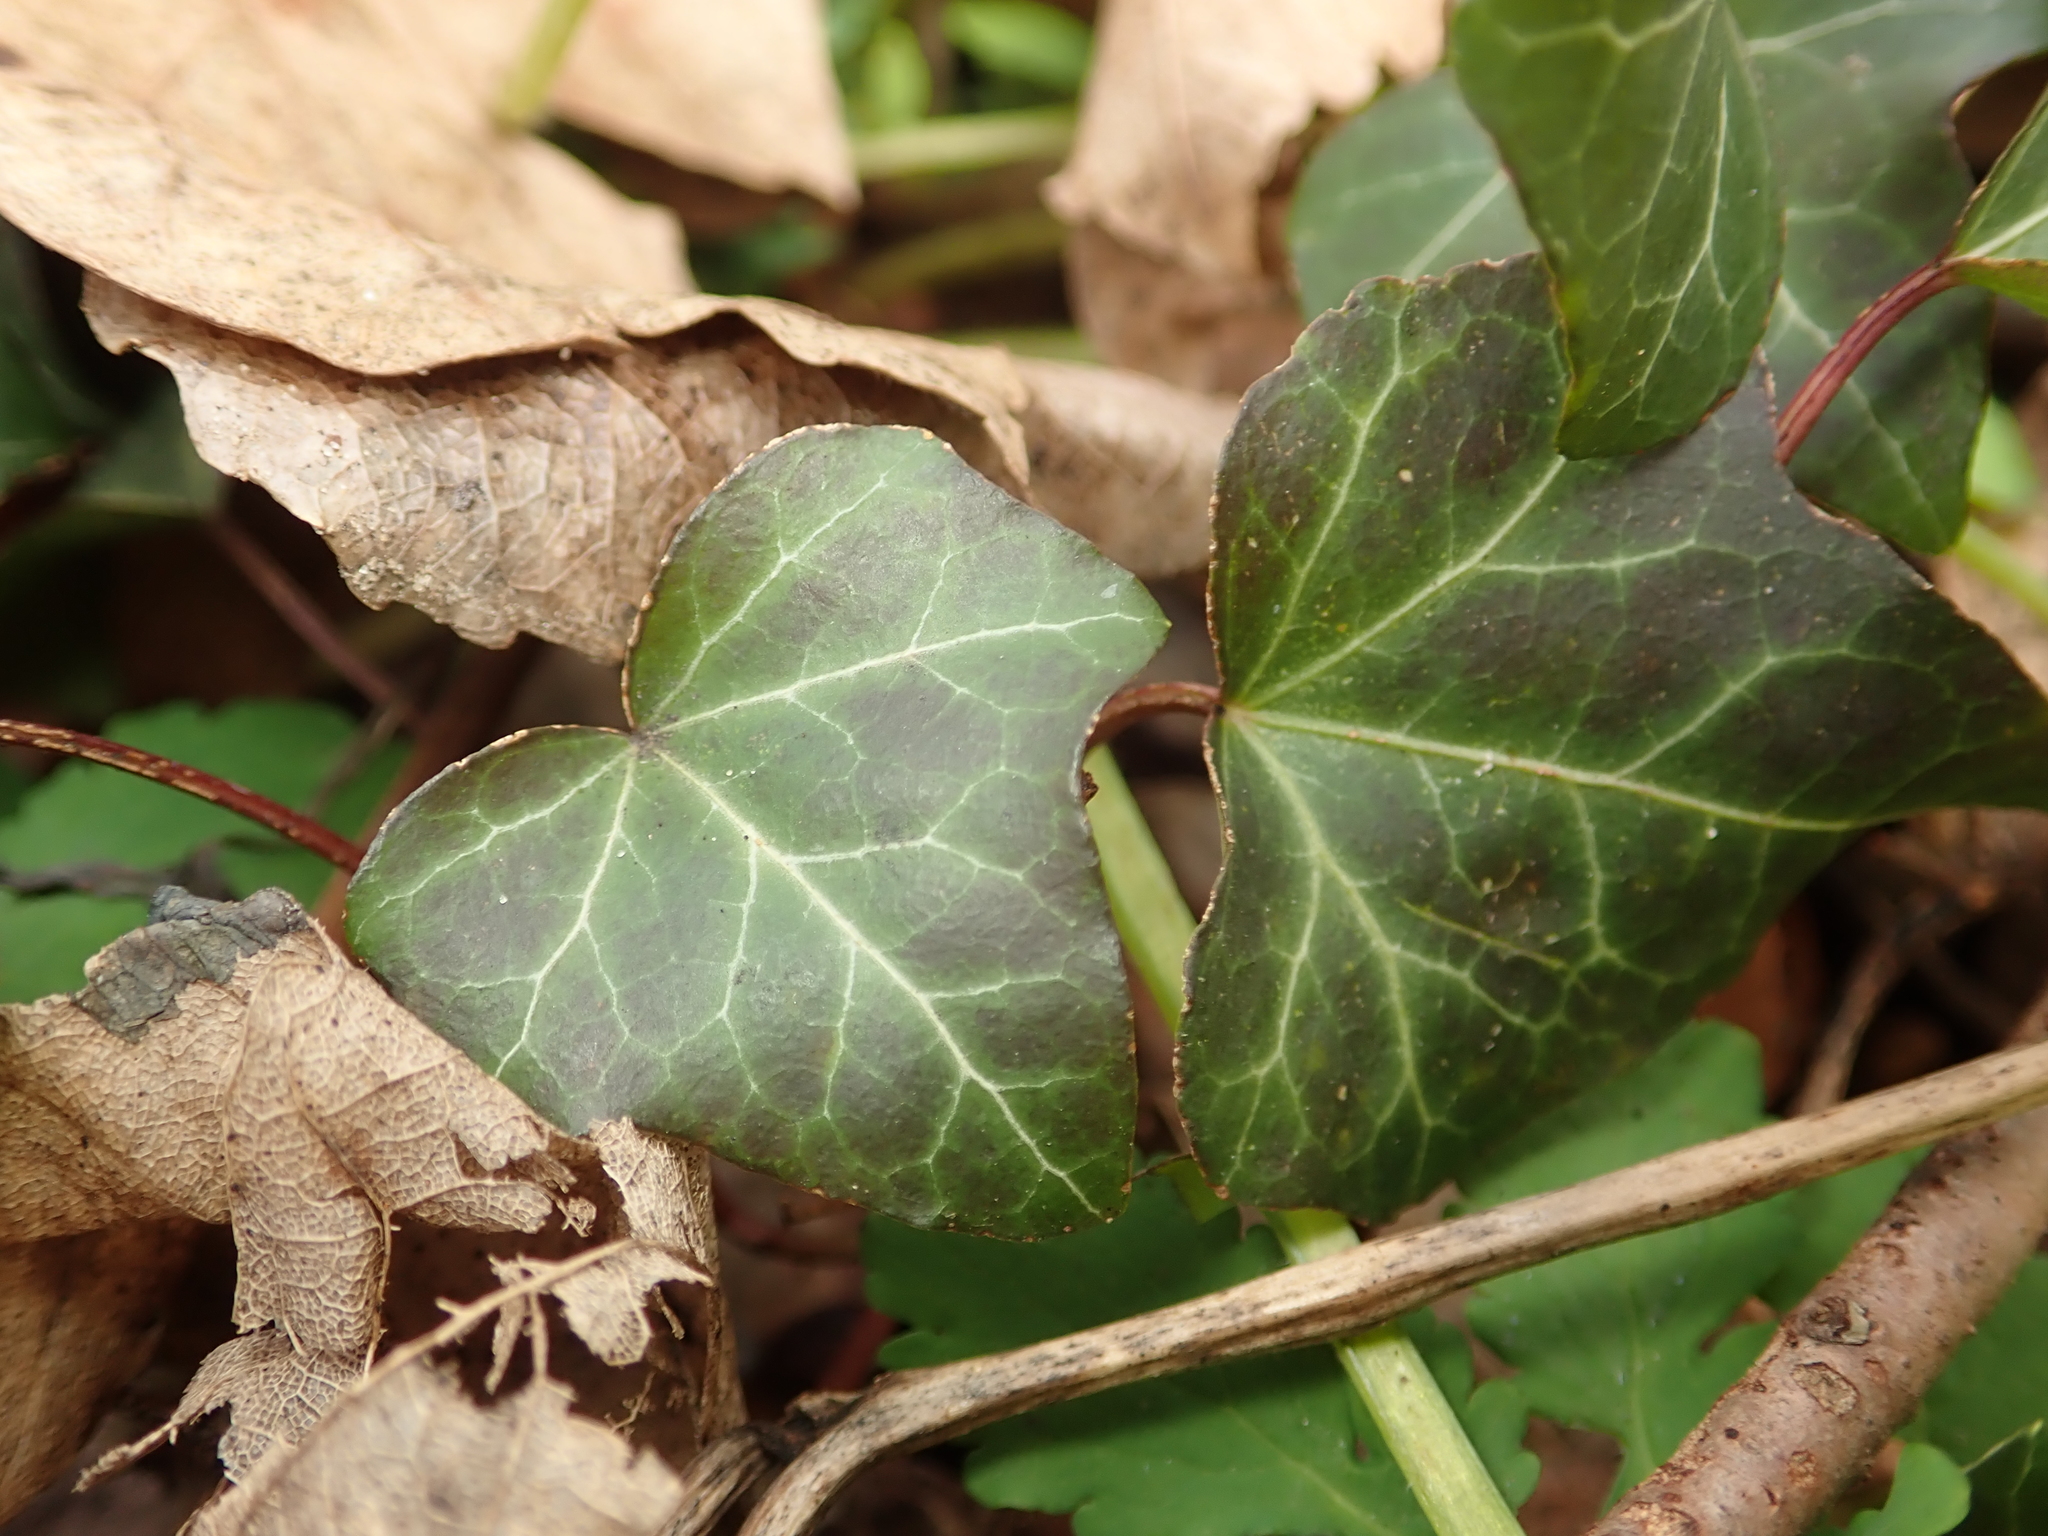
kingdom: Plantae
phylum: Tracheophyta
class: Magnoliopsida
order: Apiales
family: Araliaceae
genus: Hedera
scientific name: Hedera helix
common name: Ivy
